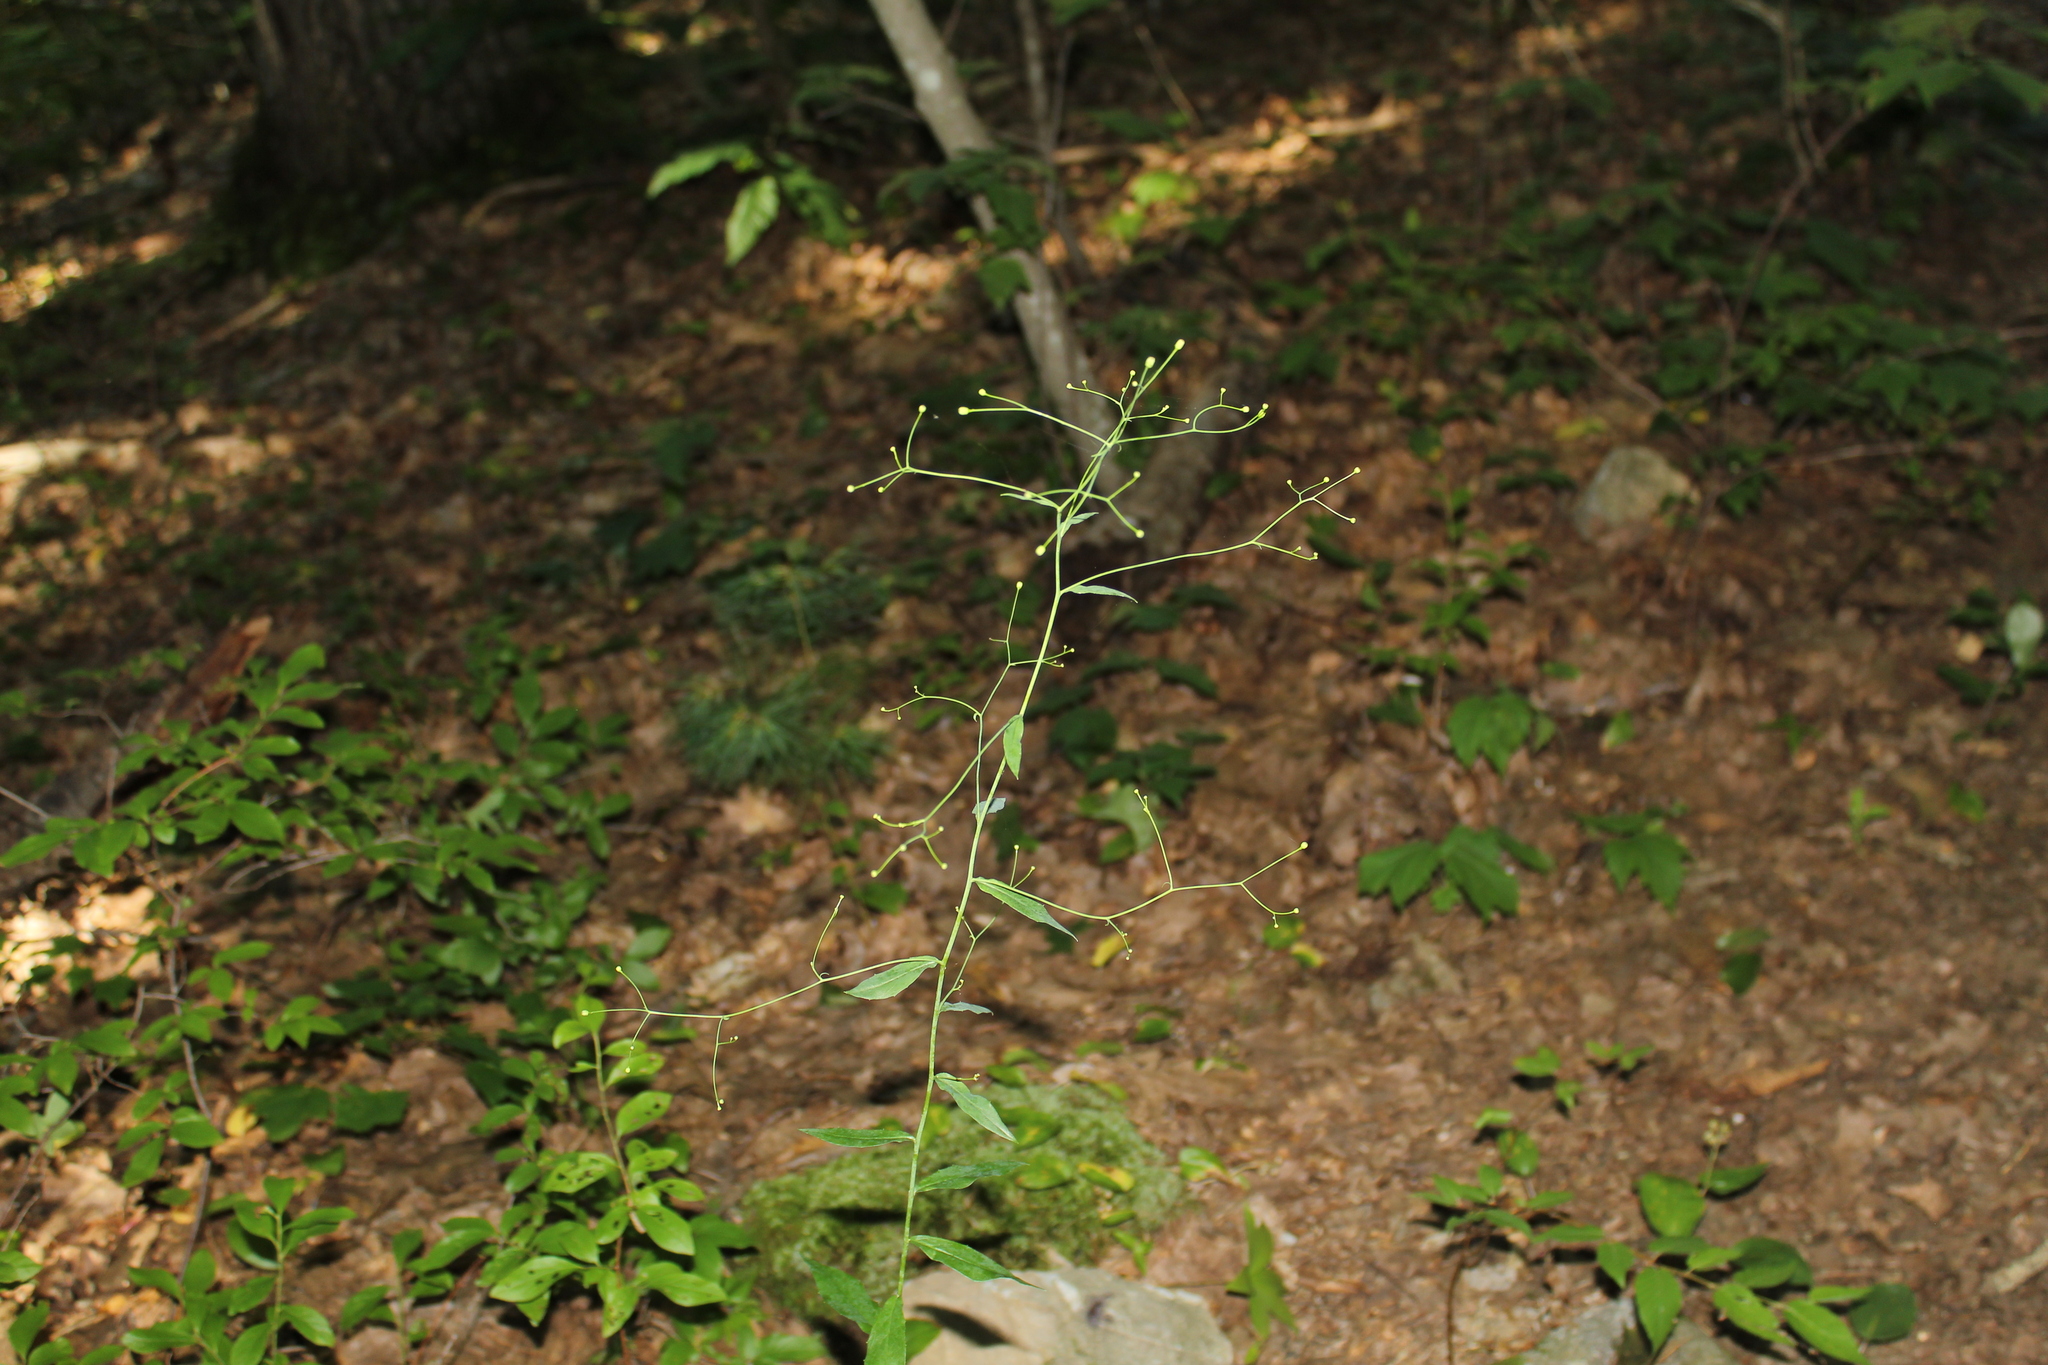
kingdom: Plantae
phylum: Tracheophyta
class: Magnoliopsida
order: Asterales
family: Asteraceae
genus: Hieracium
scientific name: Hieracium paniculatum
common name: Allegheny hawkweed
